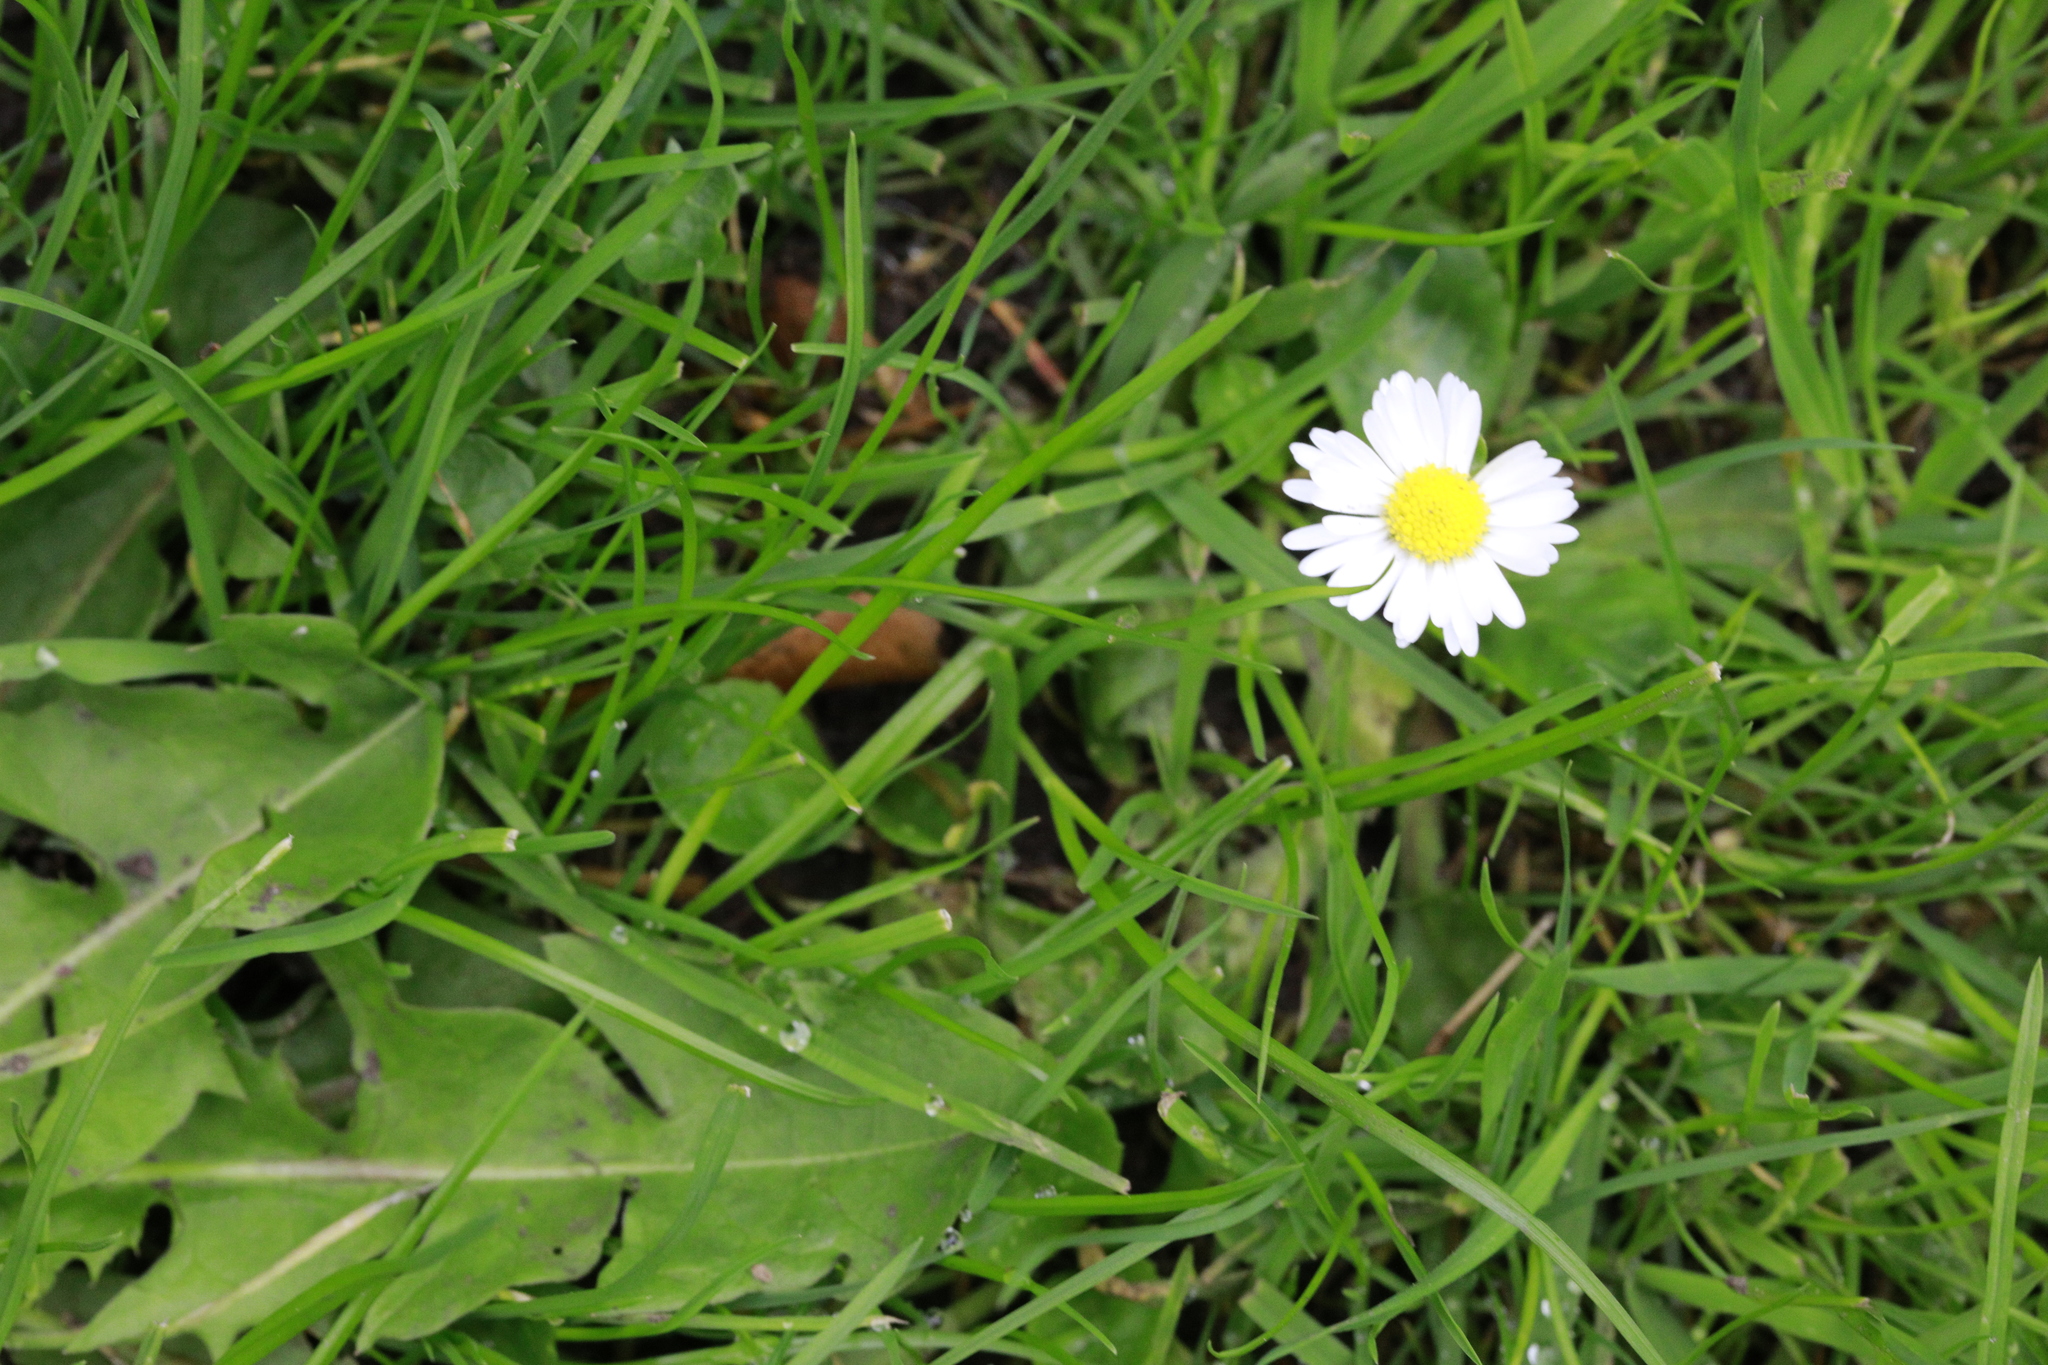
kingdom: Plantae
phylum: Tracheophyta
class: Magnoliopsida
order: Asterales
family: Asteraceae
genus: Bellis
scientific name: Bellis perennis
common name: Lawndaisy
